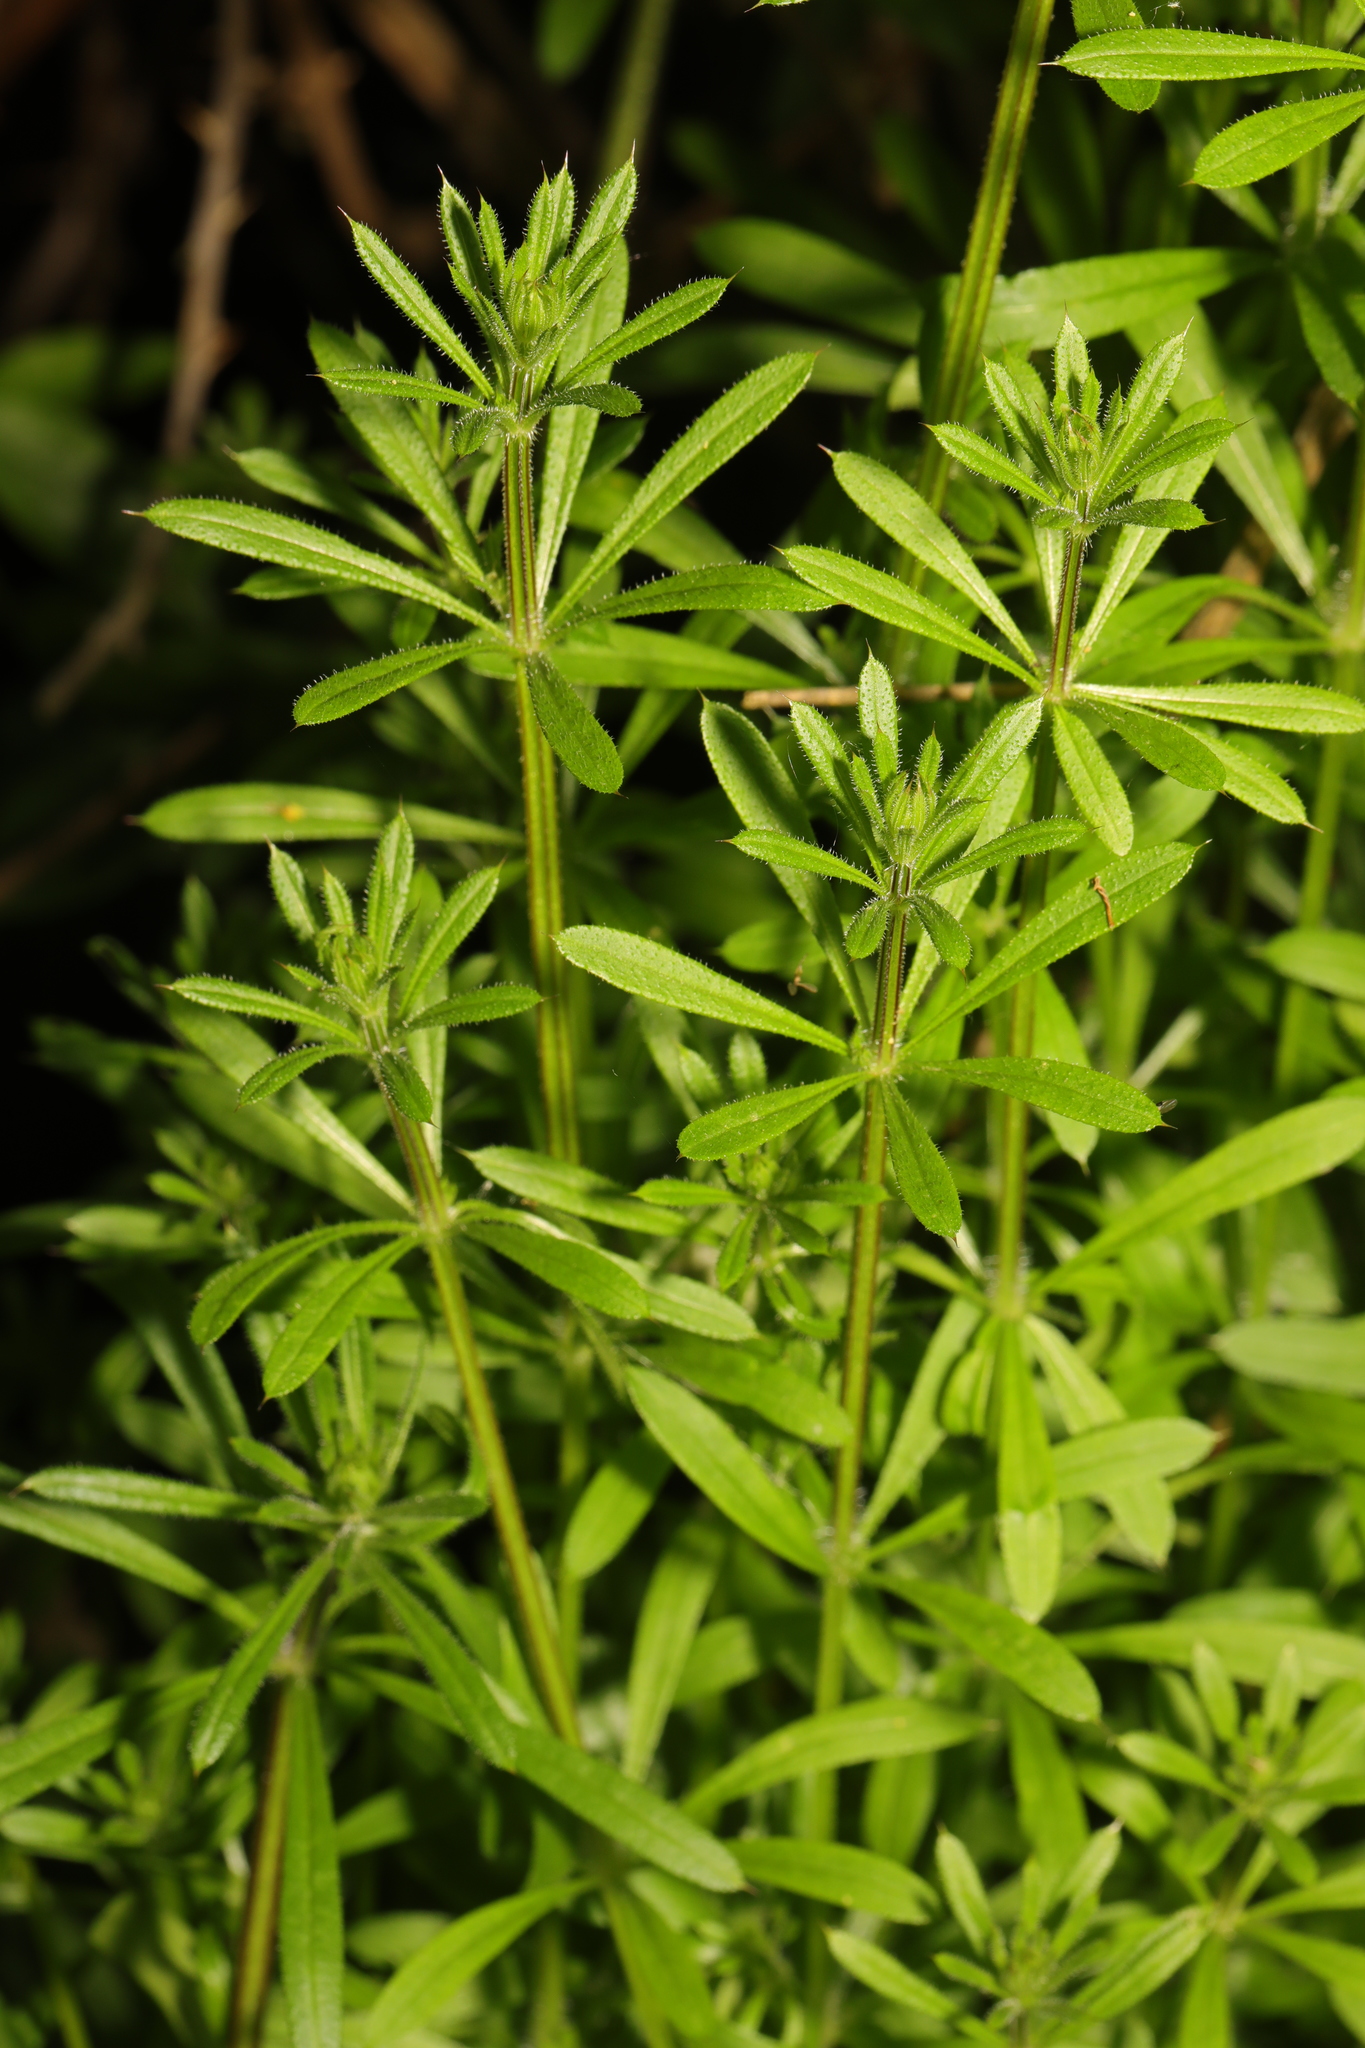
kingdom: Plantae
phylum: Tracheophyta
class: Magnoliopsida
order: Gentianales
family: Rubiaceae
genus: Galium
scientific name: Galium aparine
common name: Cleavers
